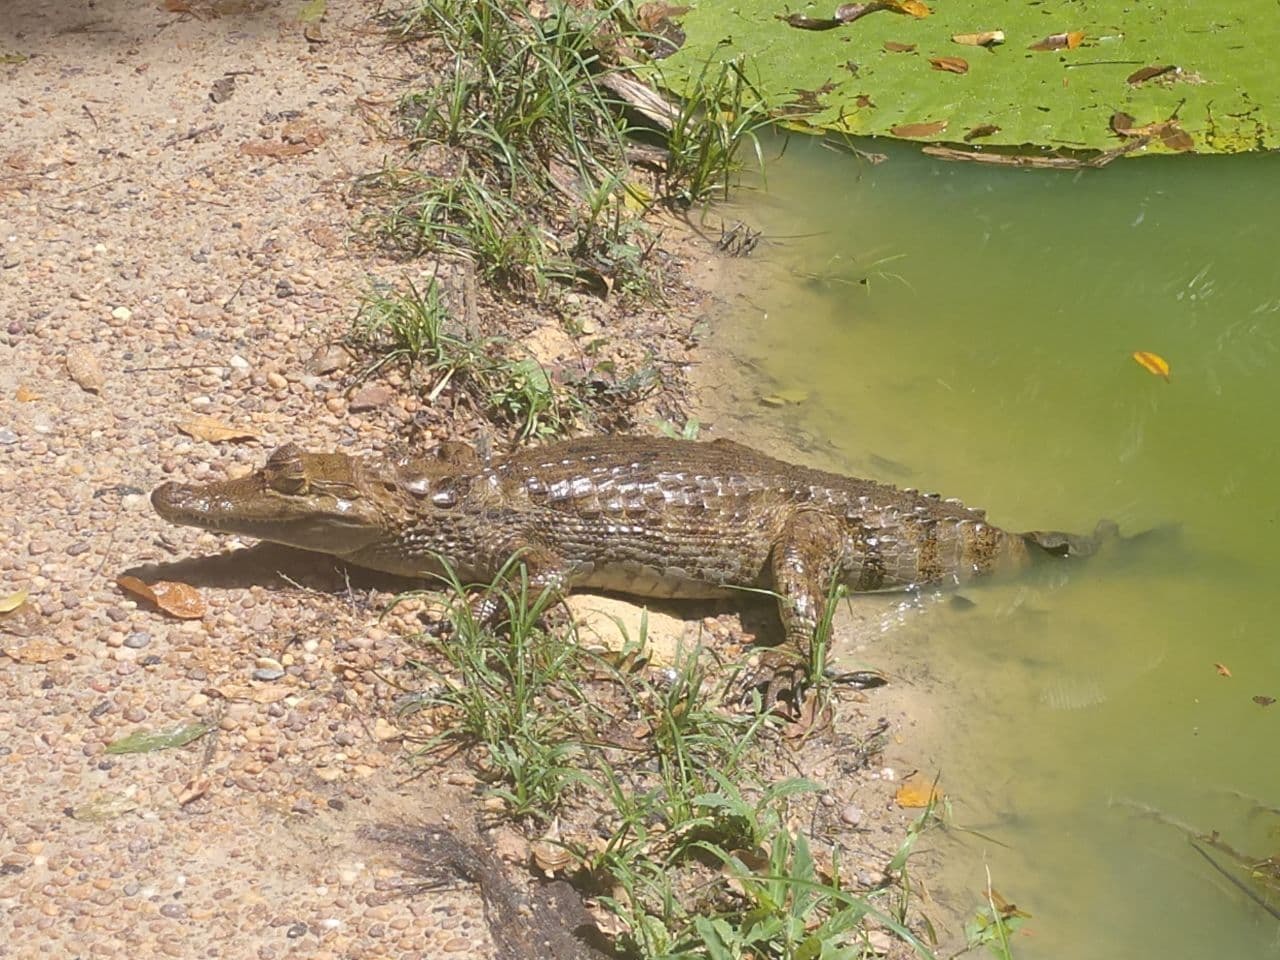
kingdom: Animalia
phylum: Chordata
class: Crocodylia
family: Alligatoridae
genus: Caiman
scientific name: Caiman crocodilus
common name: Common caiman
